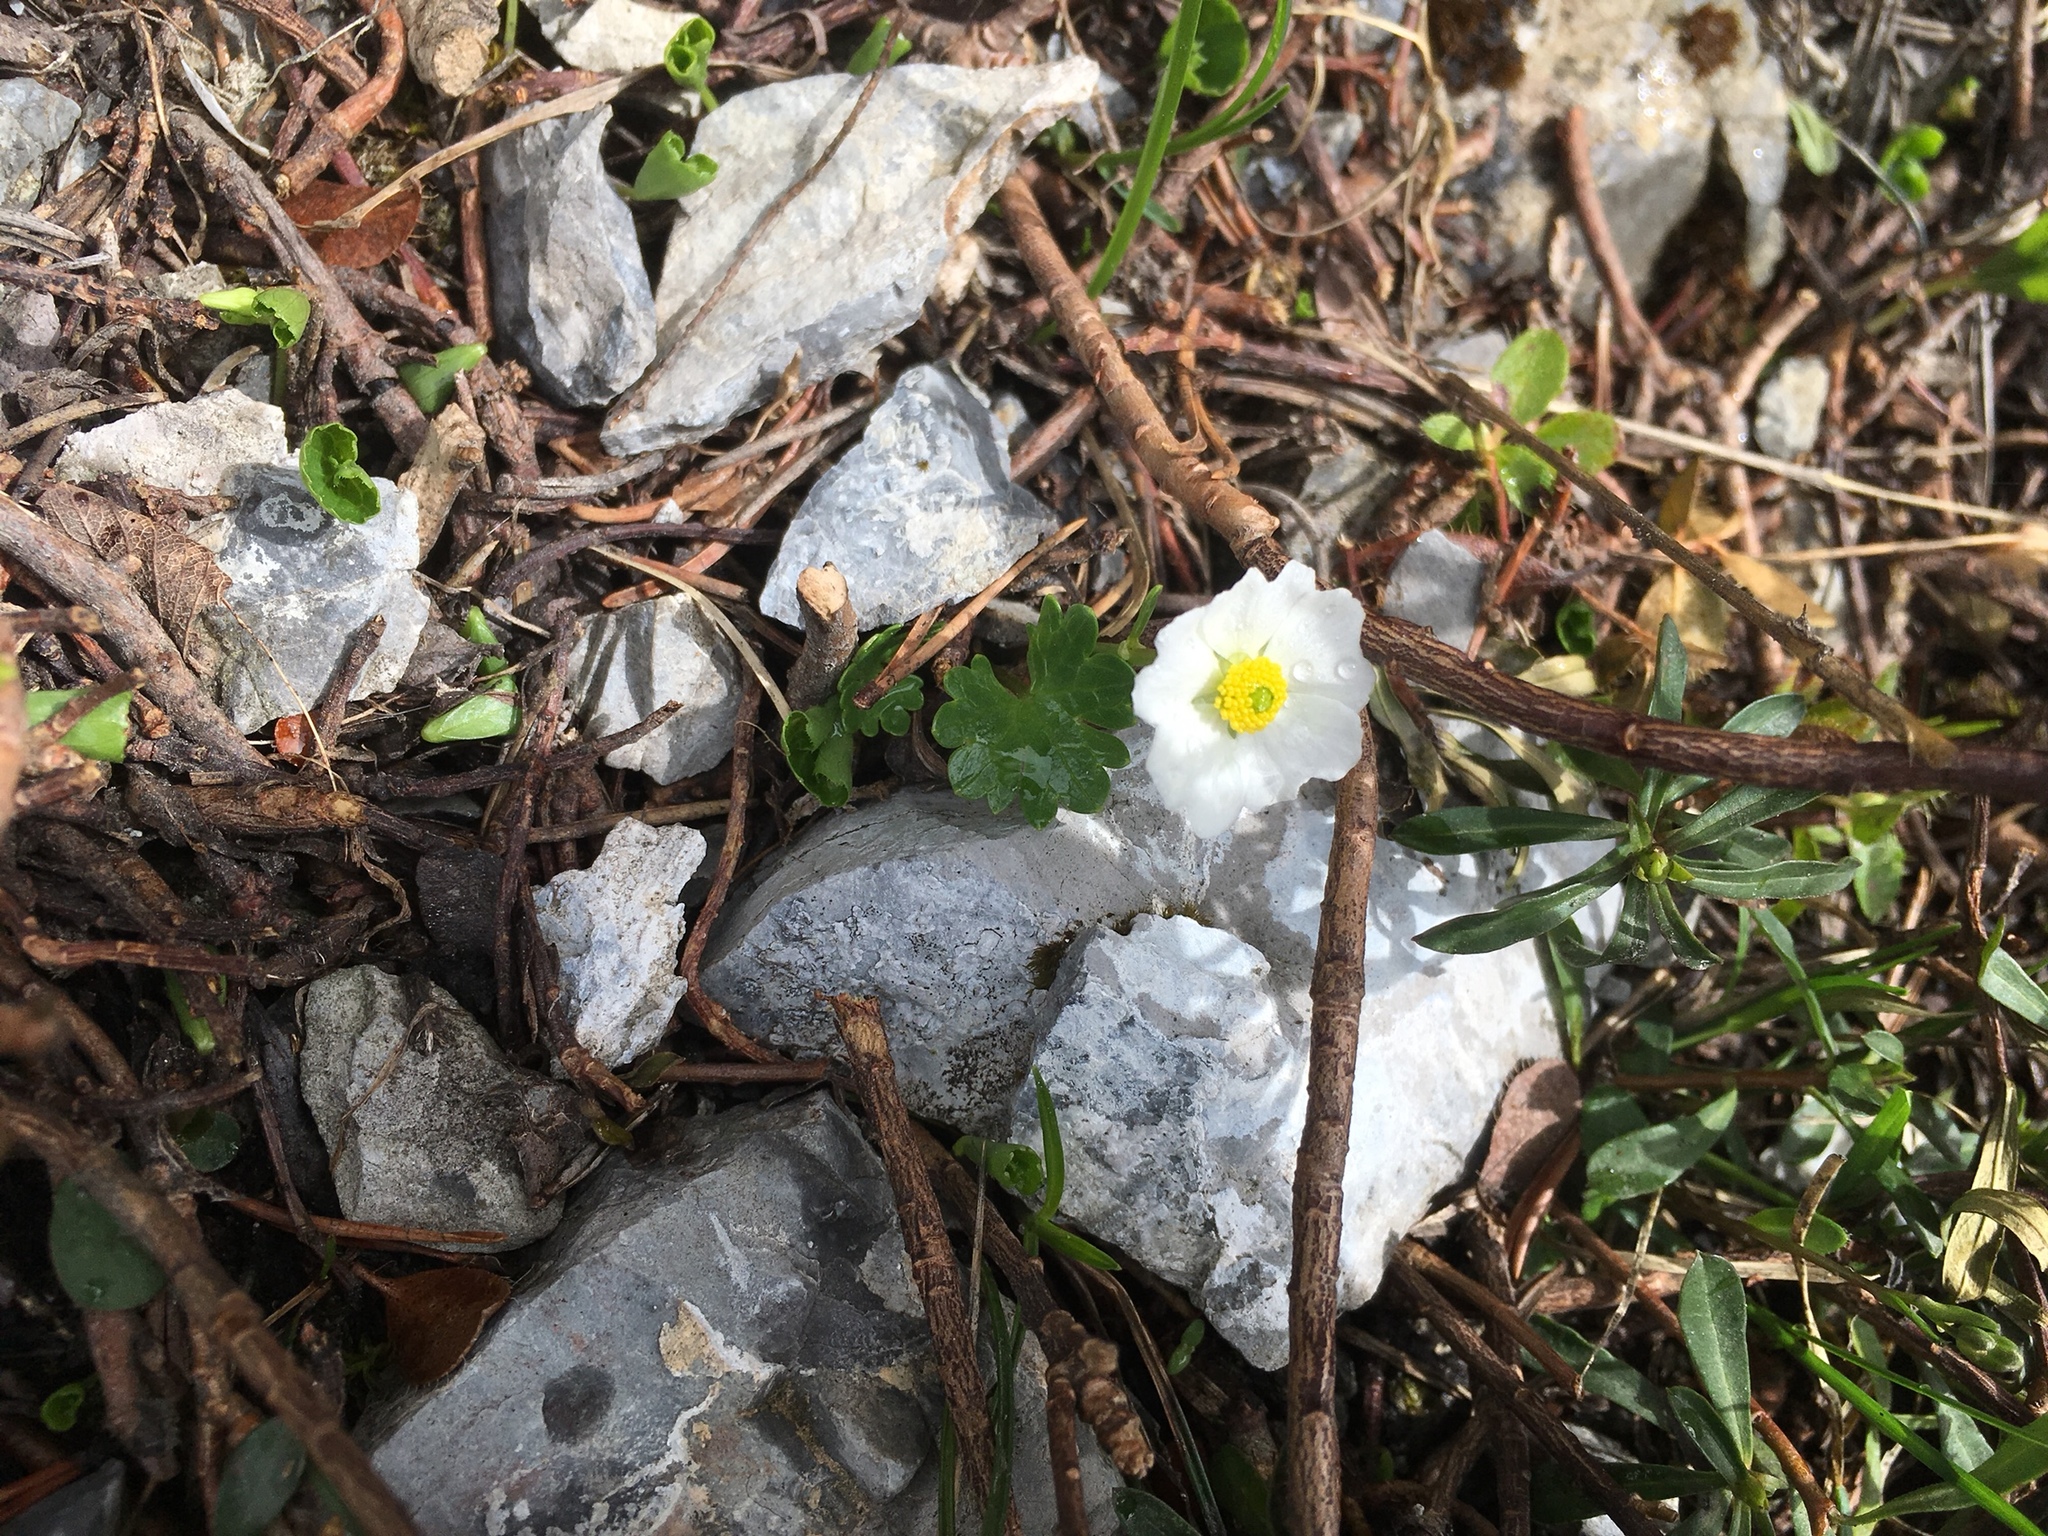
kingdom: Plantae
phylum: Tracheophyta
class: Magnoliopsida
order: Ranunculales
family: Ranunculaceae
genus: Ranunculus
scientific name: Ranunculus alpestris
